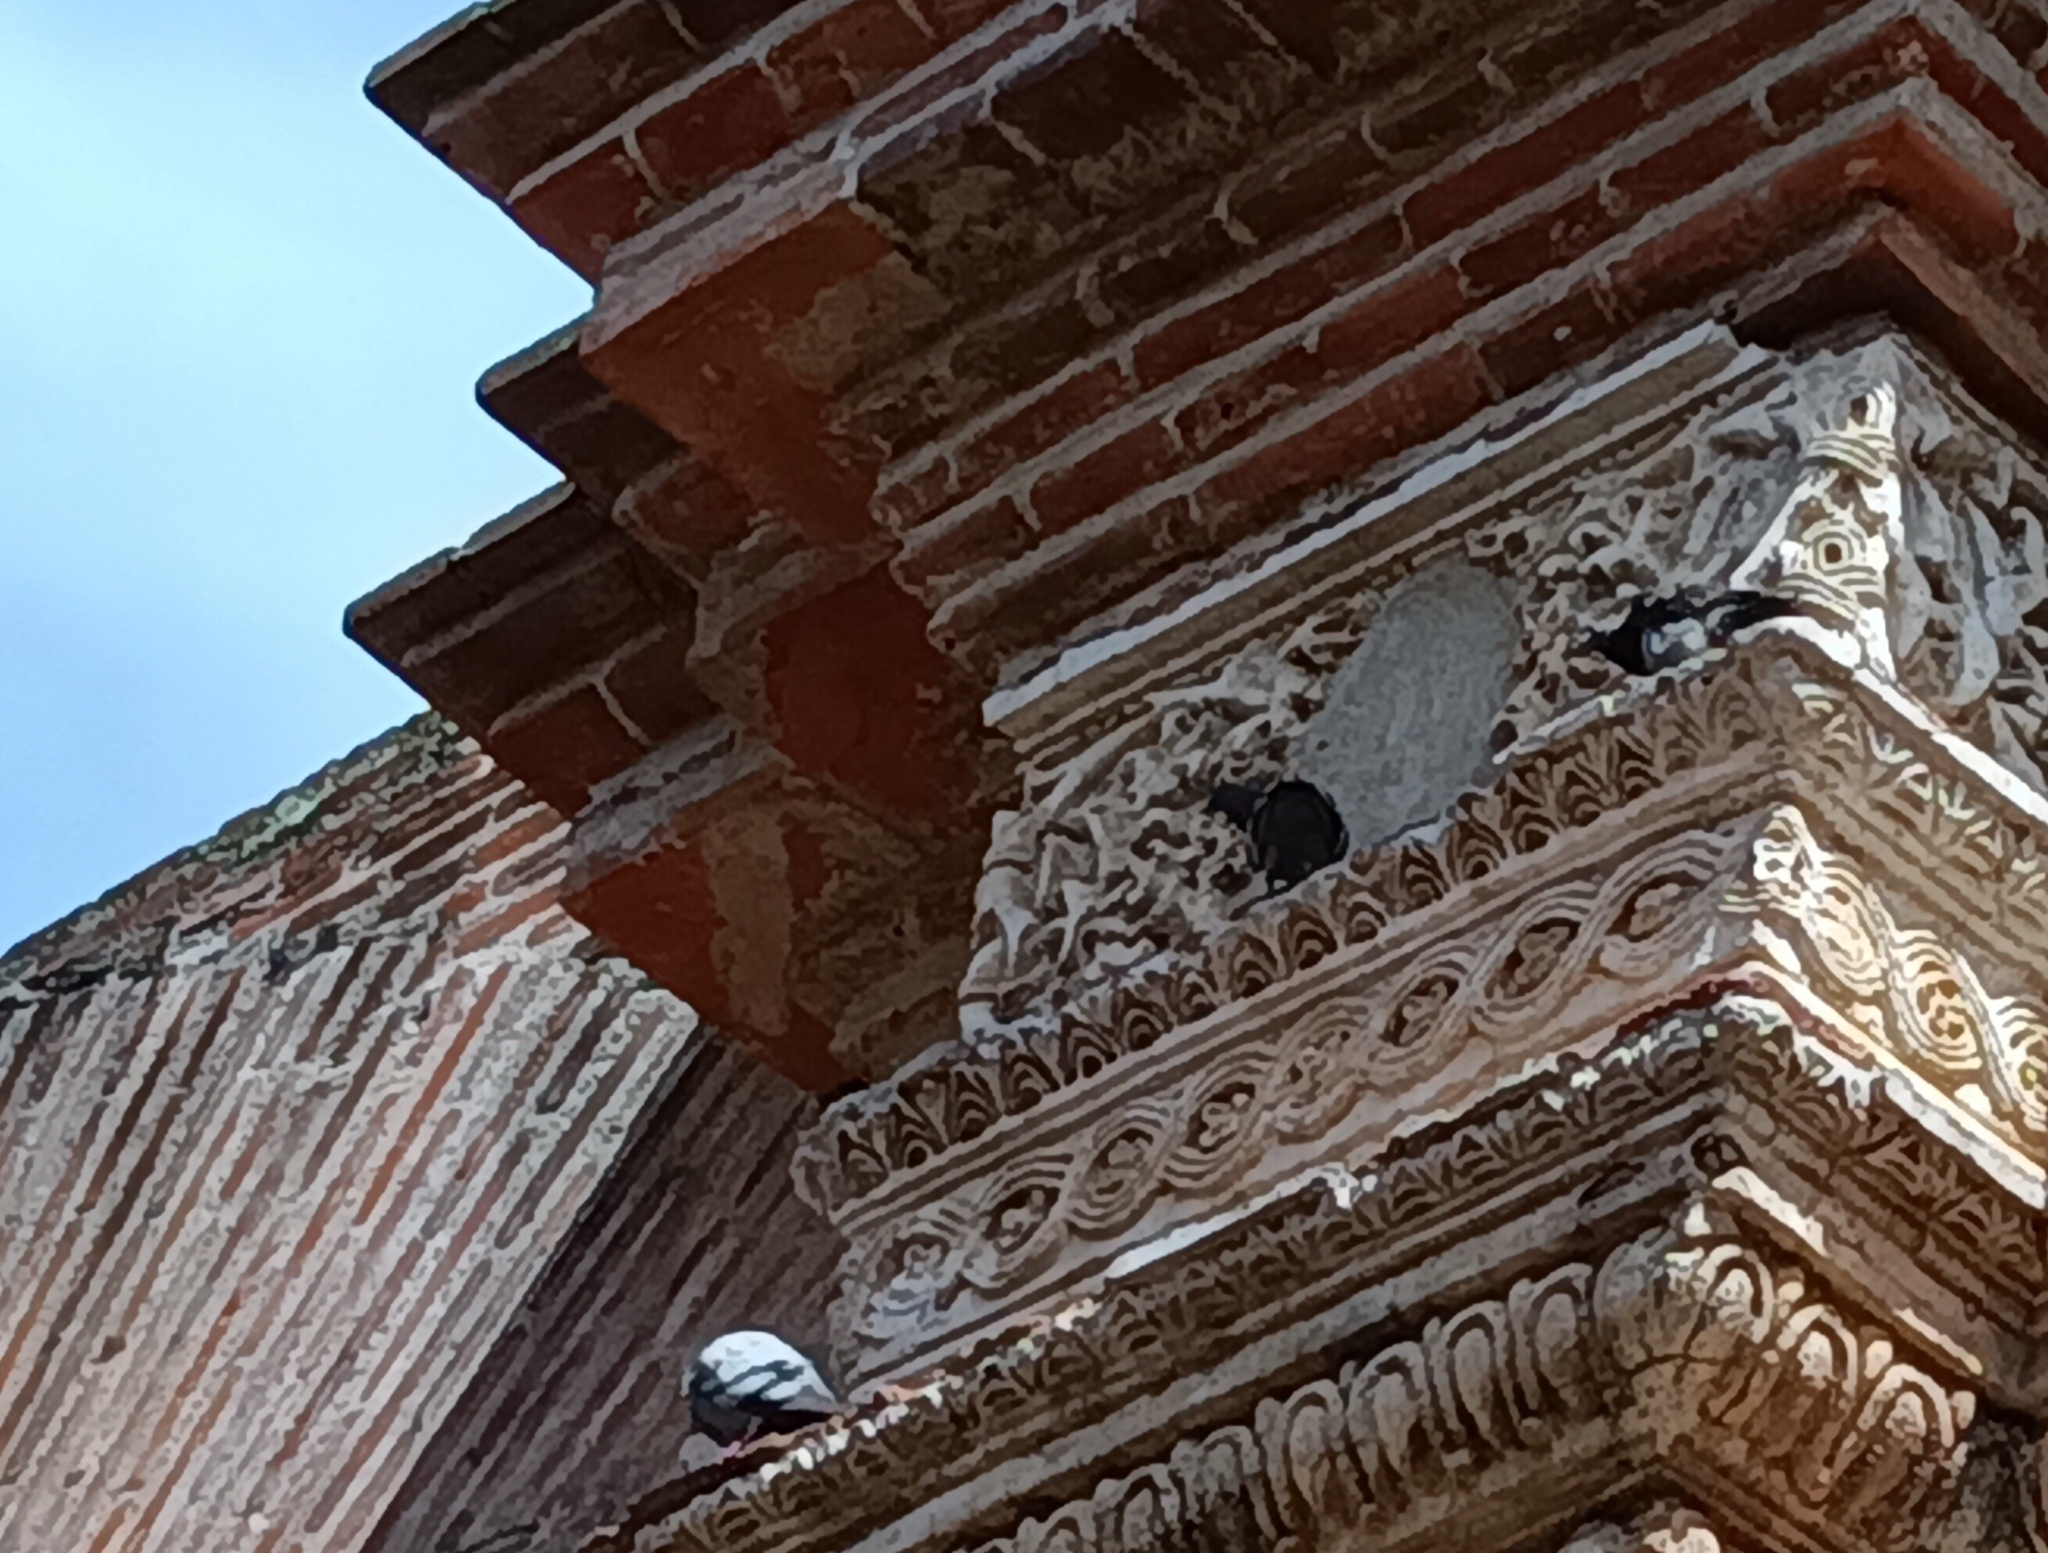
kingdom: Animalia
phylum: Chordata
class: Aves
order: Columbiformes
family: Columbidae
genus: Columba
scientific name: Columba livia
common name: Rock pigeon
